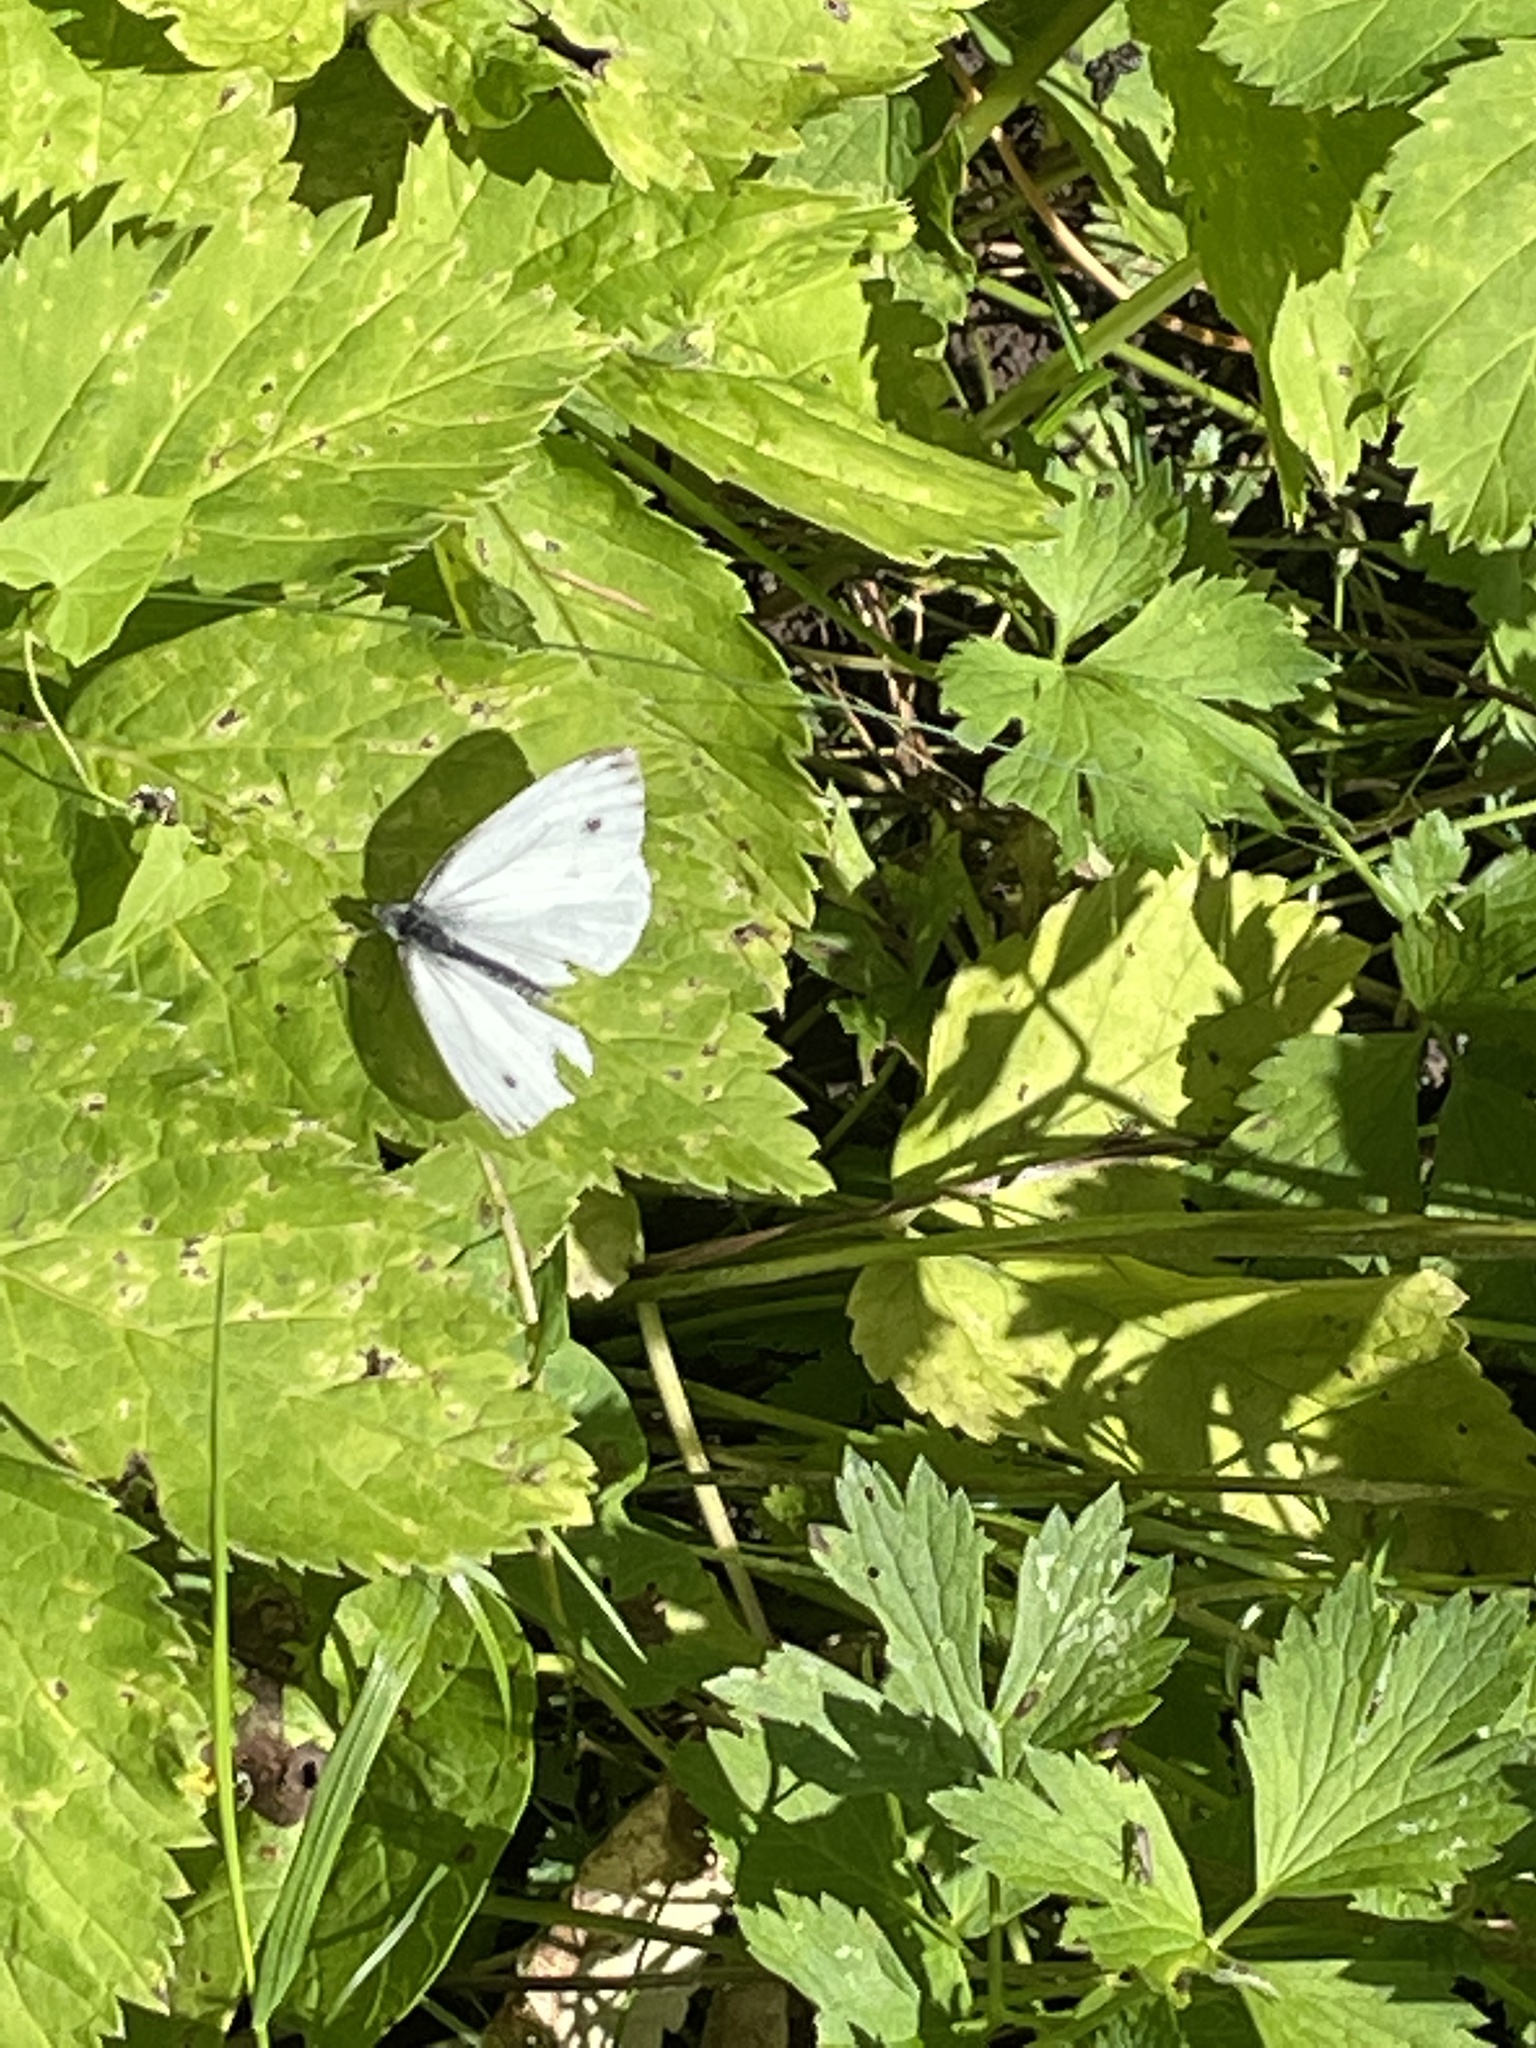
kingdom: Animalia
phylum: Arthropoda
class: Insecta
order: Lepidoptera
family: Pieridae
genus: Pieris
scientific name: Pieris napi
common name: Green-veined white
